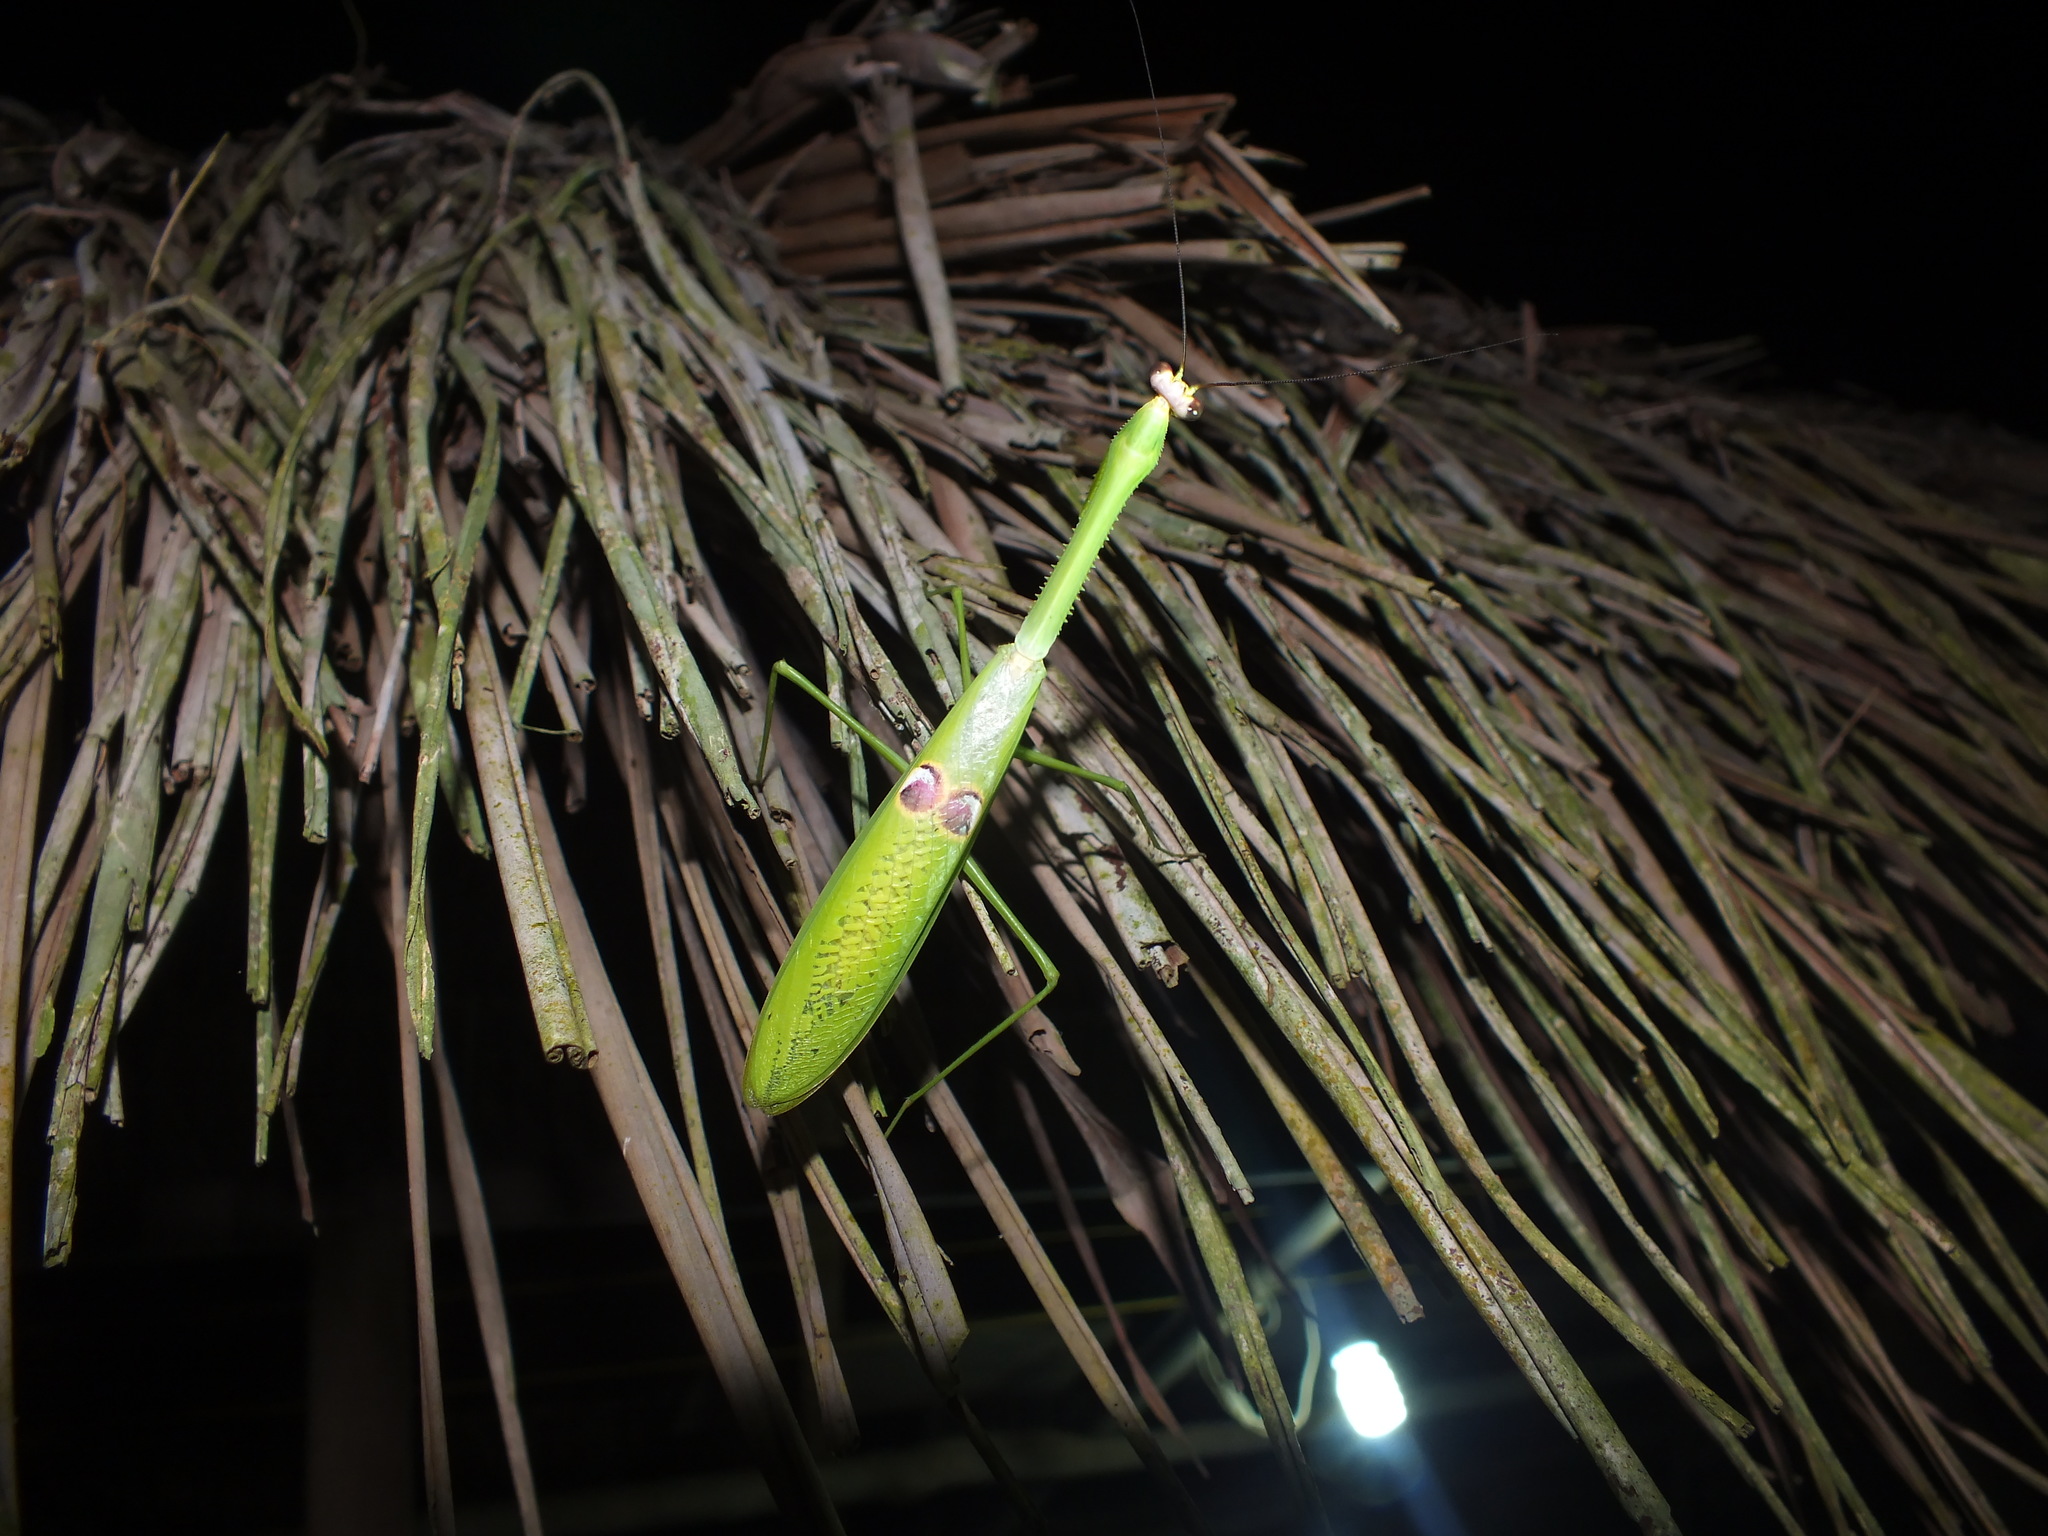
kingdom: Animalia
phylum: Arthropoda
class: Insecta
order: Mantodea
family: Mantidae
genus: Stagmatoptera
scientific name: Stagmatoptera binotata
